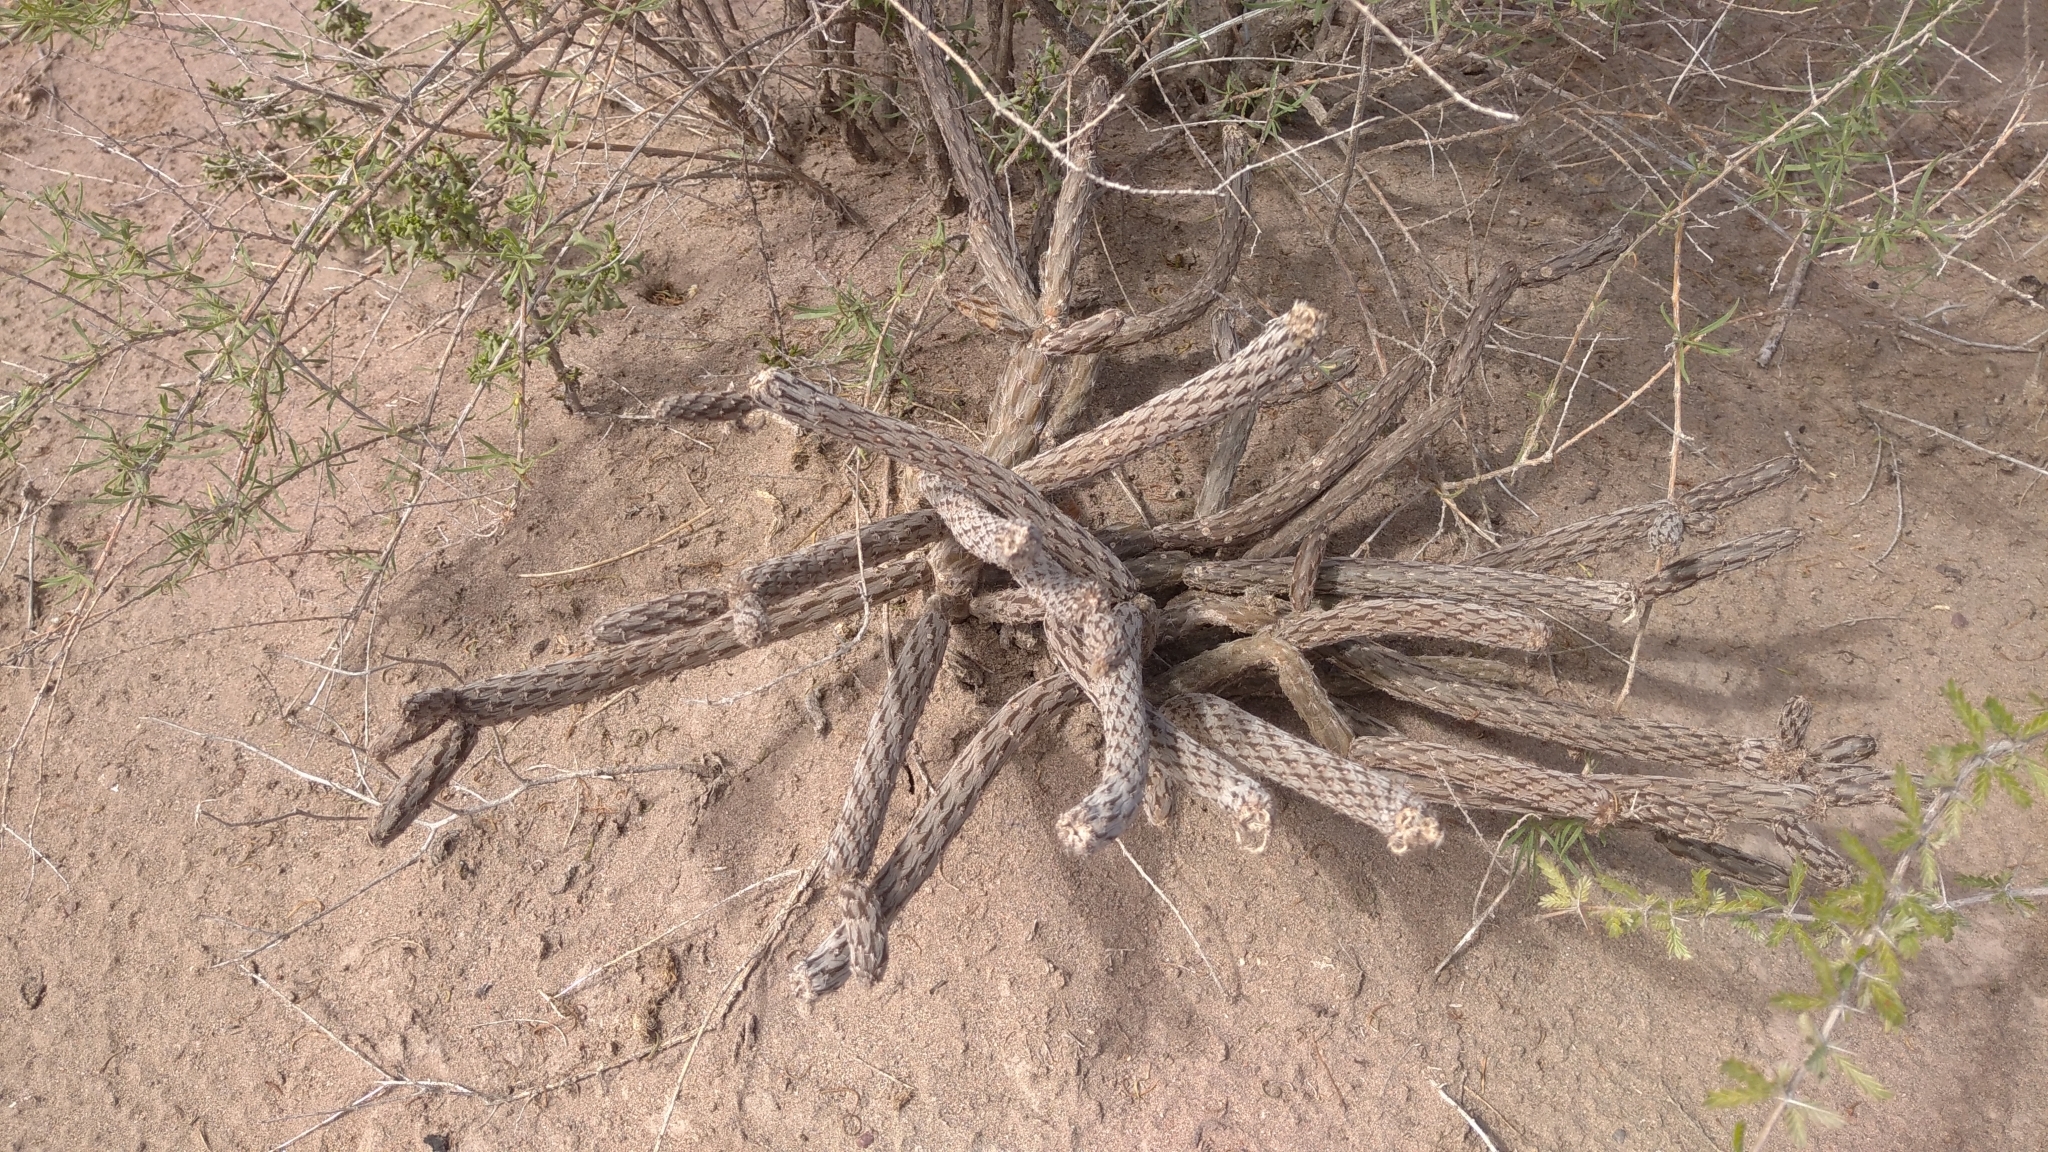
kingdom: Plantae
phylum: Tracheophyta
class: Magnoliopsida
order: Caryophyllales
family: Cactaceae
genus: Pterocactus
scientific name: Pterocactus tuberosus
